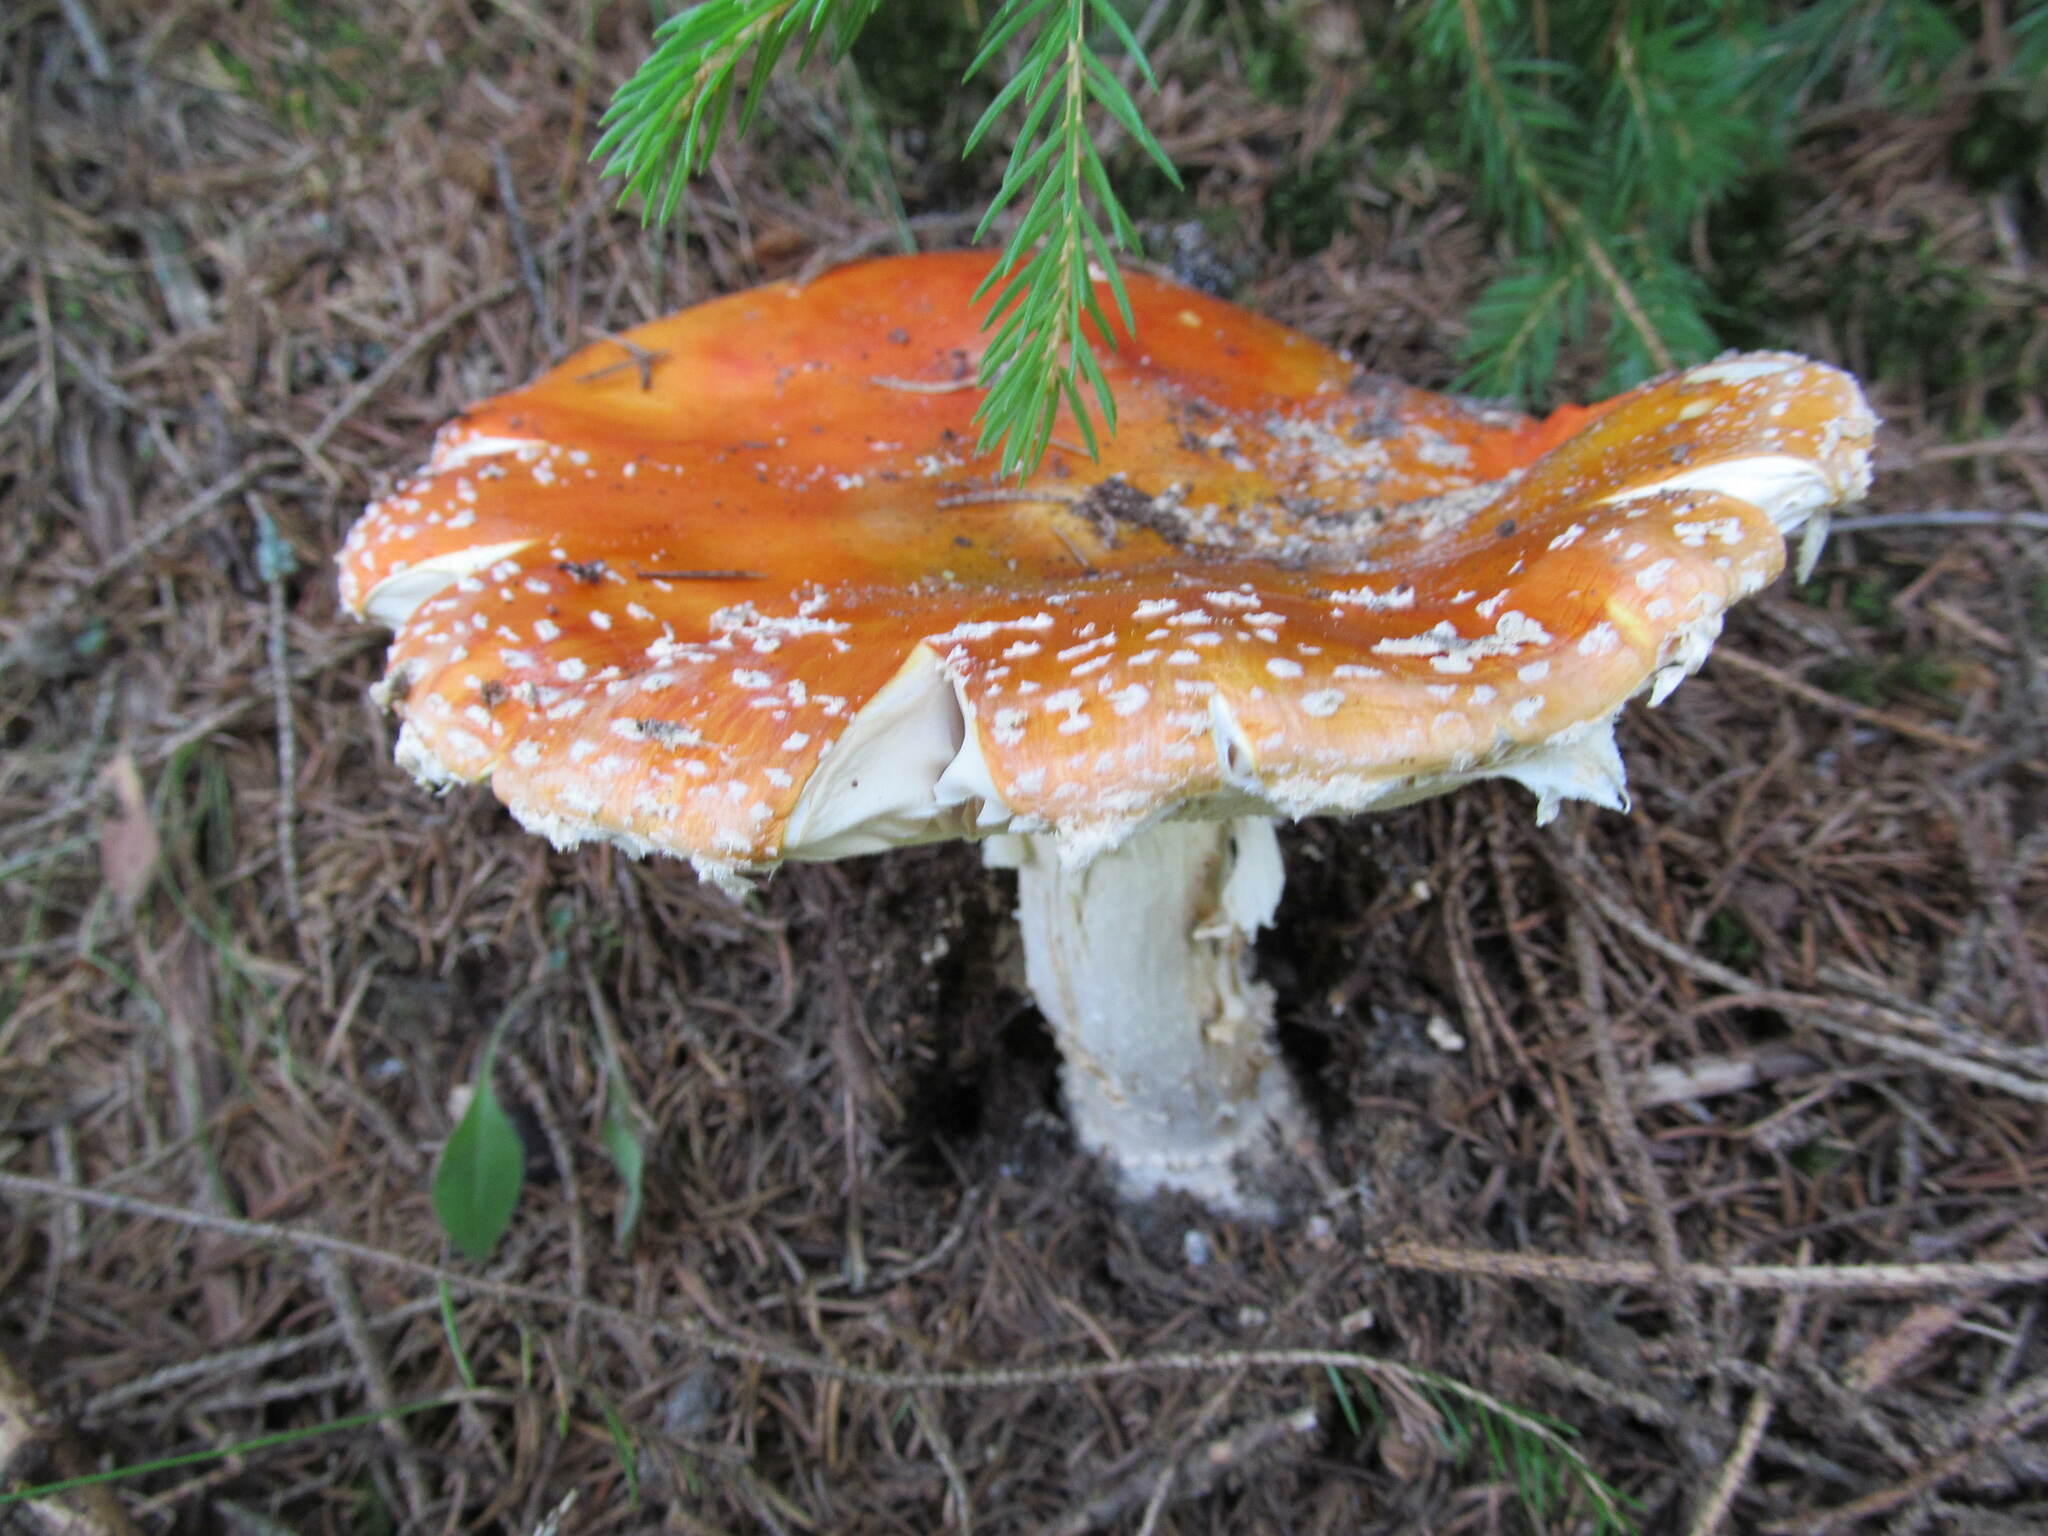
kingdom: Fungi
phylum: Basidiomycota
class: Agaricomycetes
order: Agaricales
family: Amanitaceae
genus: Amanita
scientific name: Amanita muscaria
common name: Fly agaric
